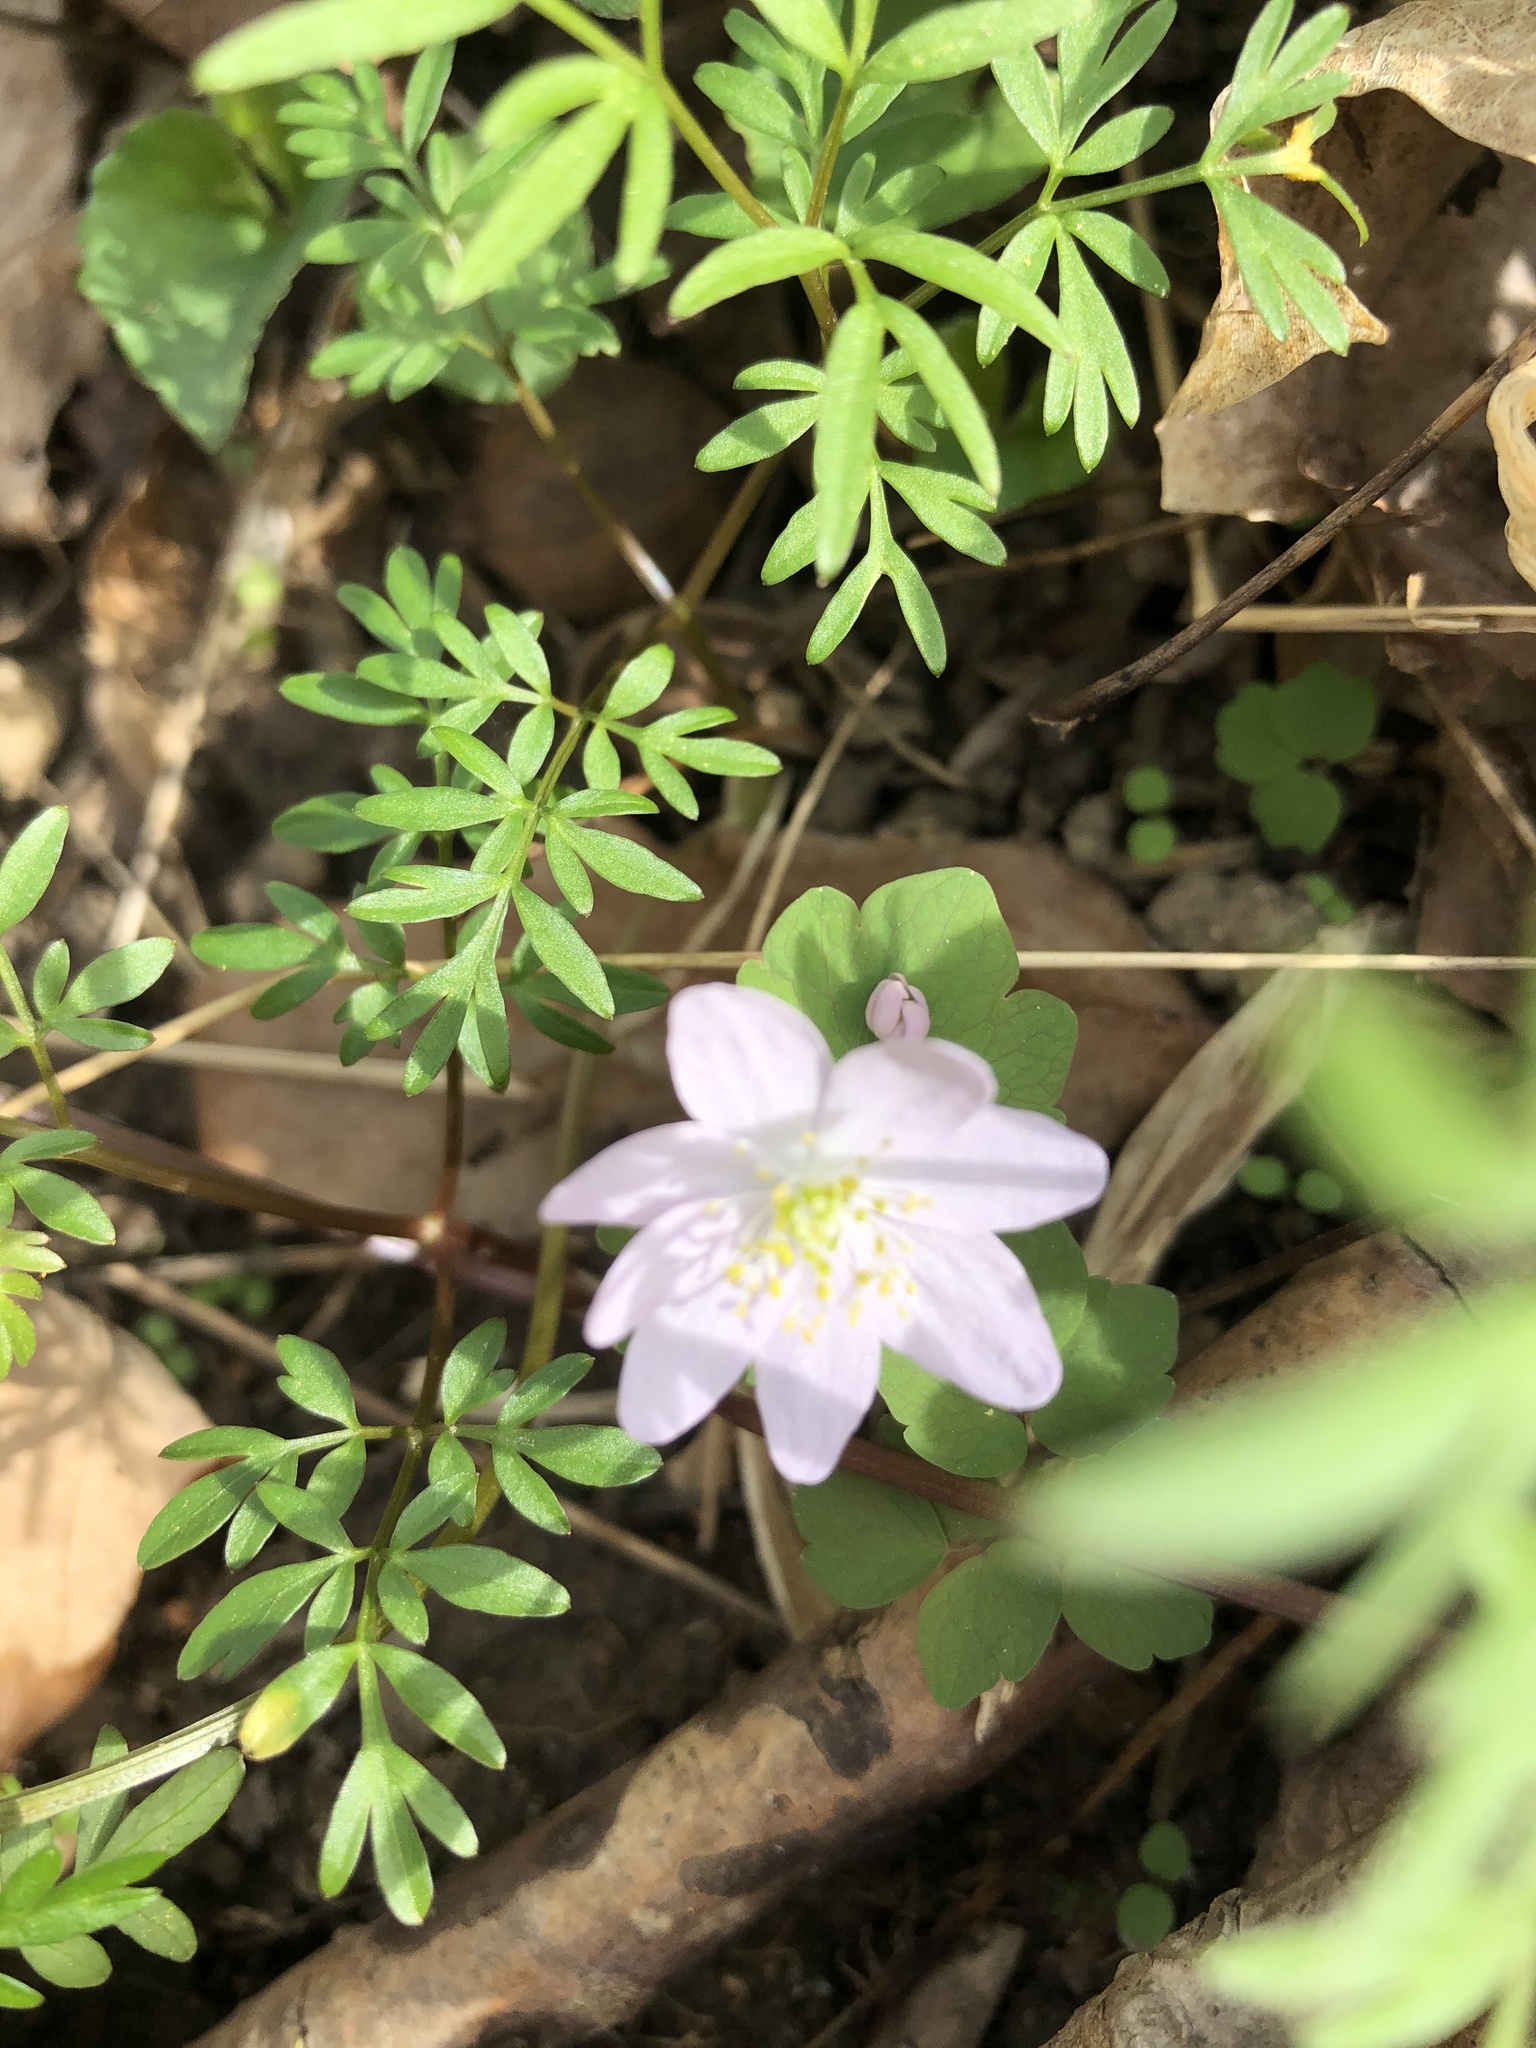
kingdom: Plantae
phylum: Tracheophyta
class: Magnoliopsida
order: Ranunculales
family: Ranunculaceae
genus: Thalictrum
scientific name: Thalictrum thalictroides
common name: Rue-anemone
